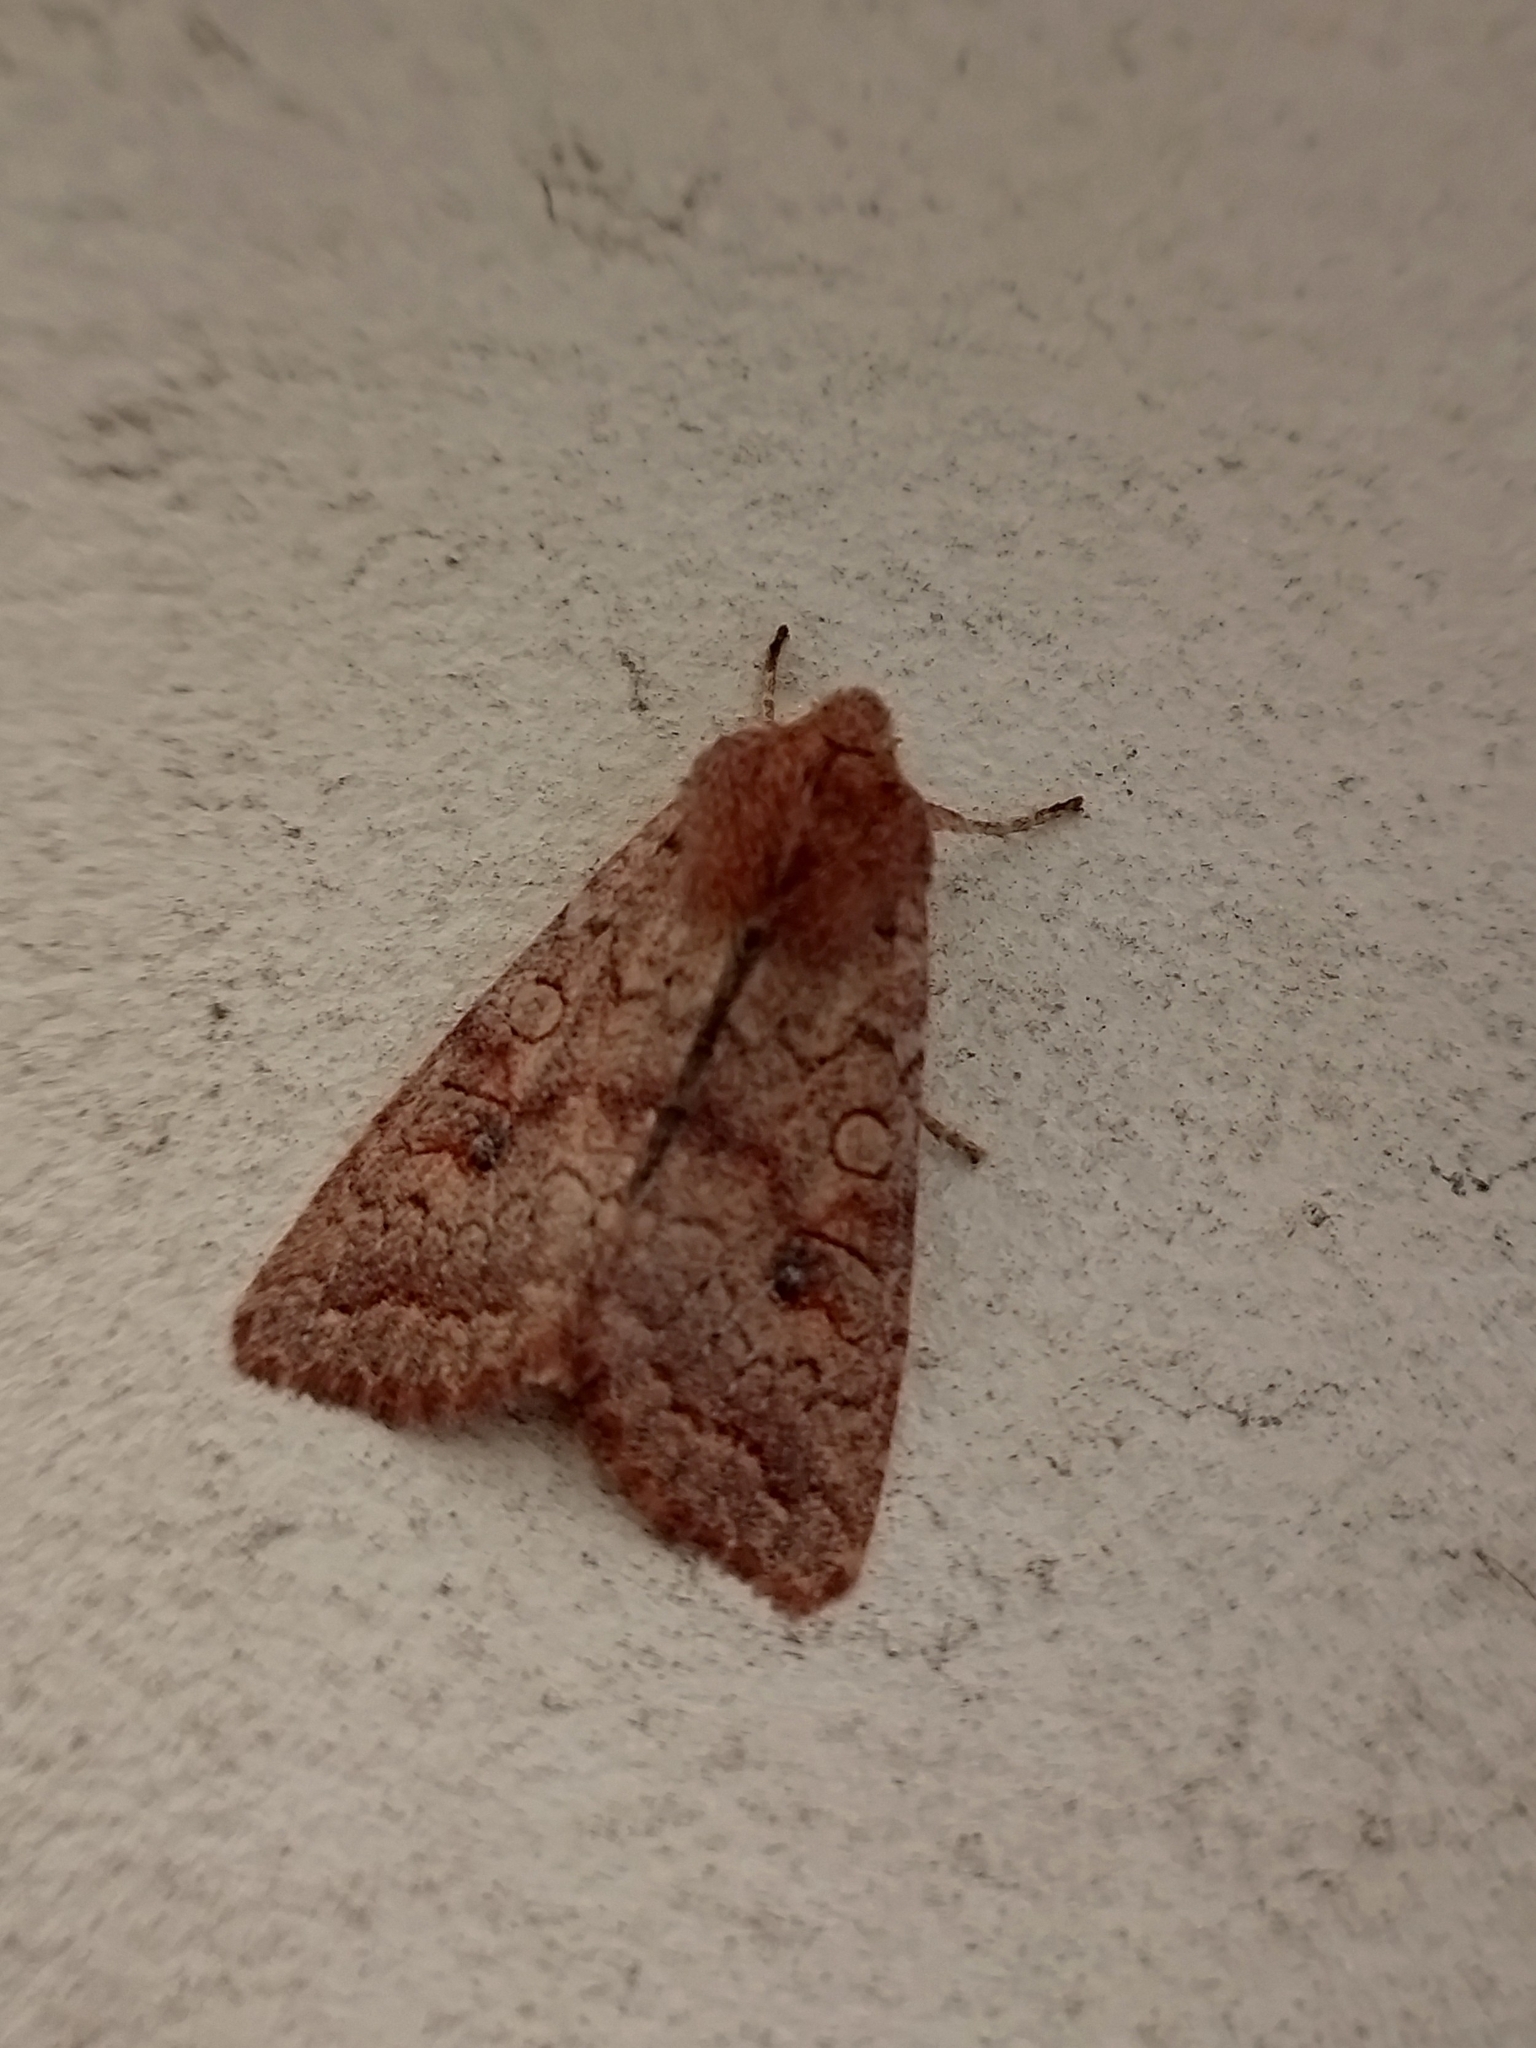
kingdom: Animalia
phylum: Arthropoda
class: Insecta
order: Lepidoptera
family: Noctuidae
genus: Sunira
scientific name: Sunira circellaris
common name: Brick
